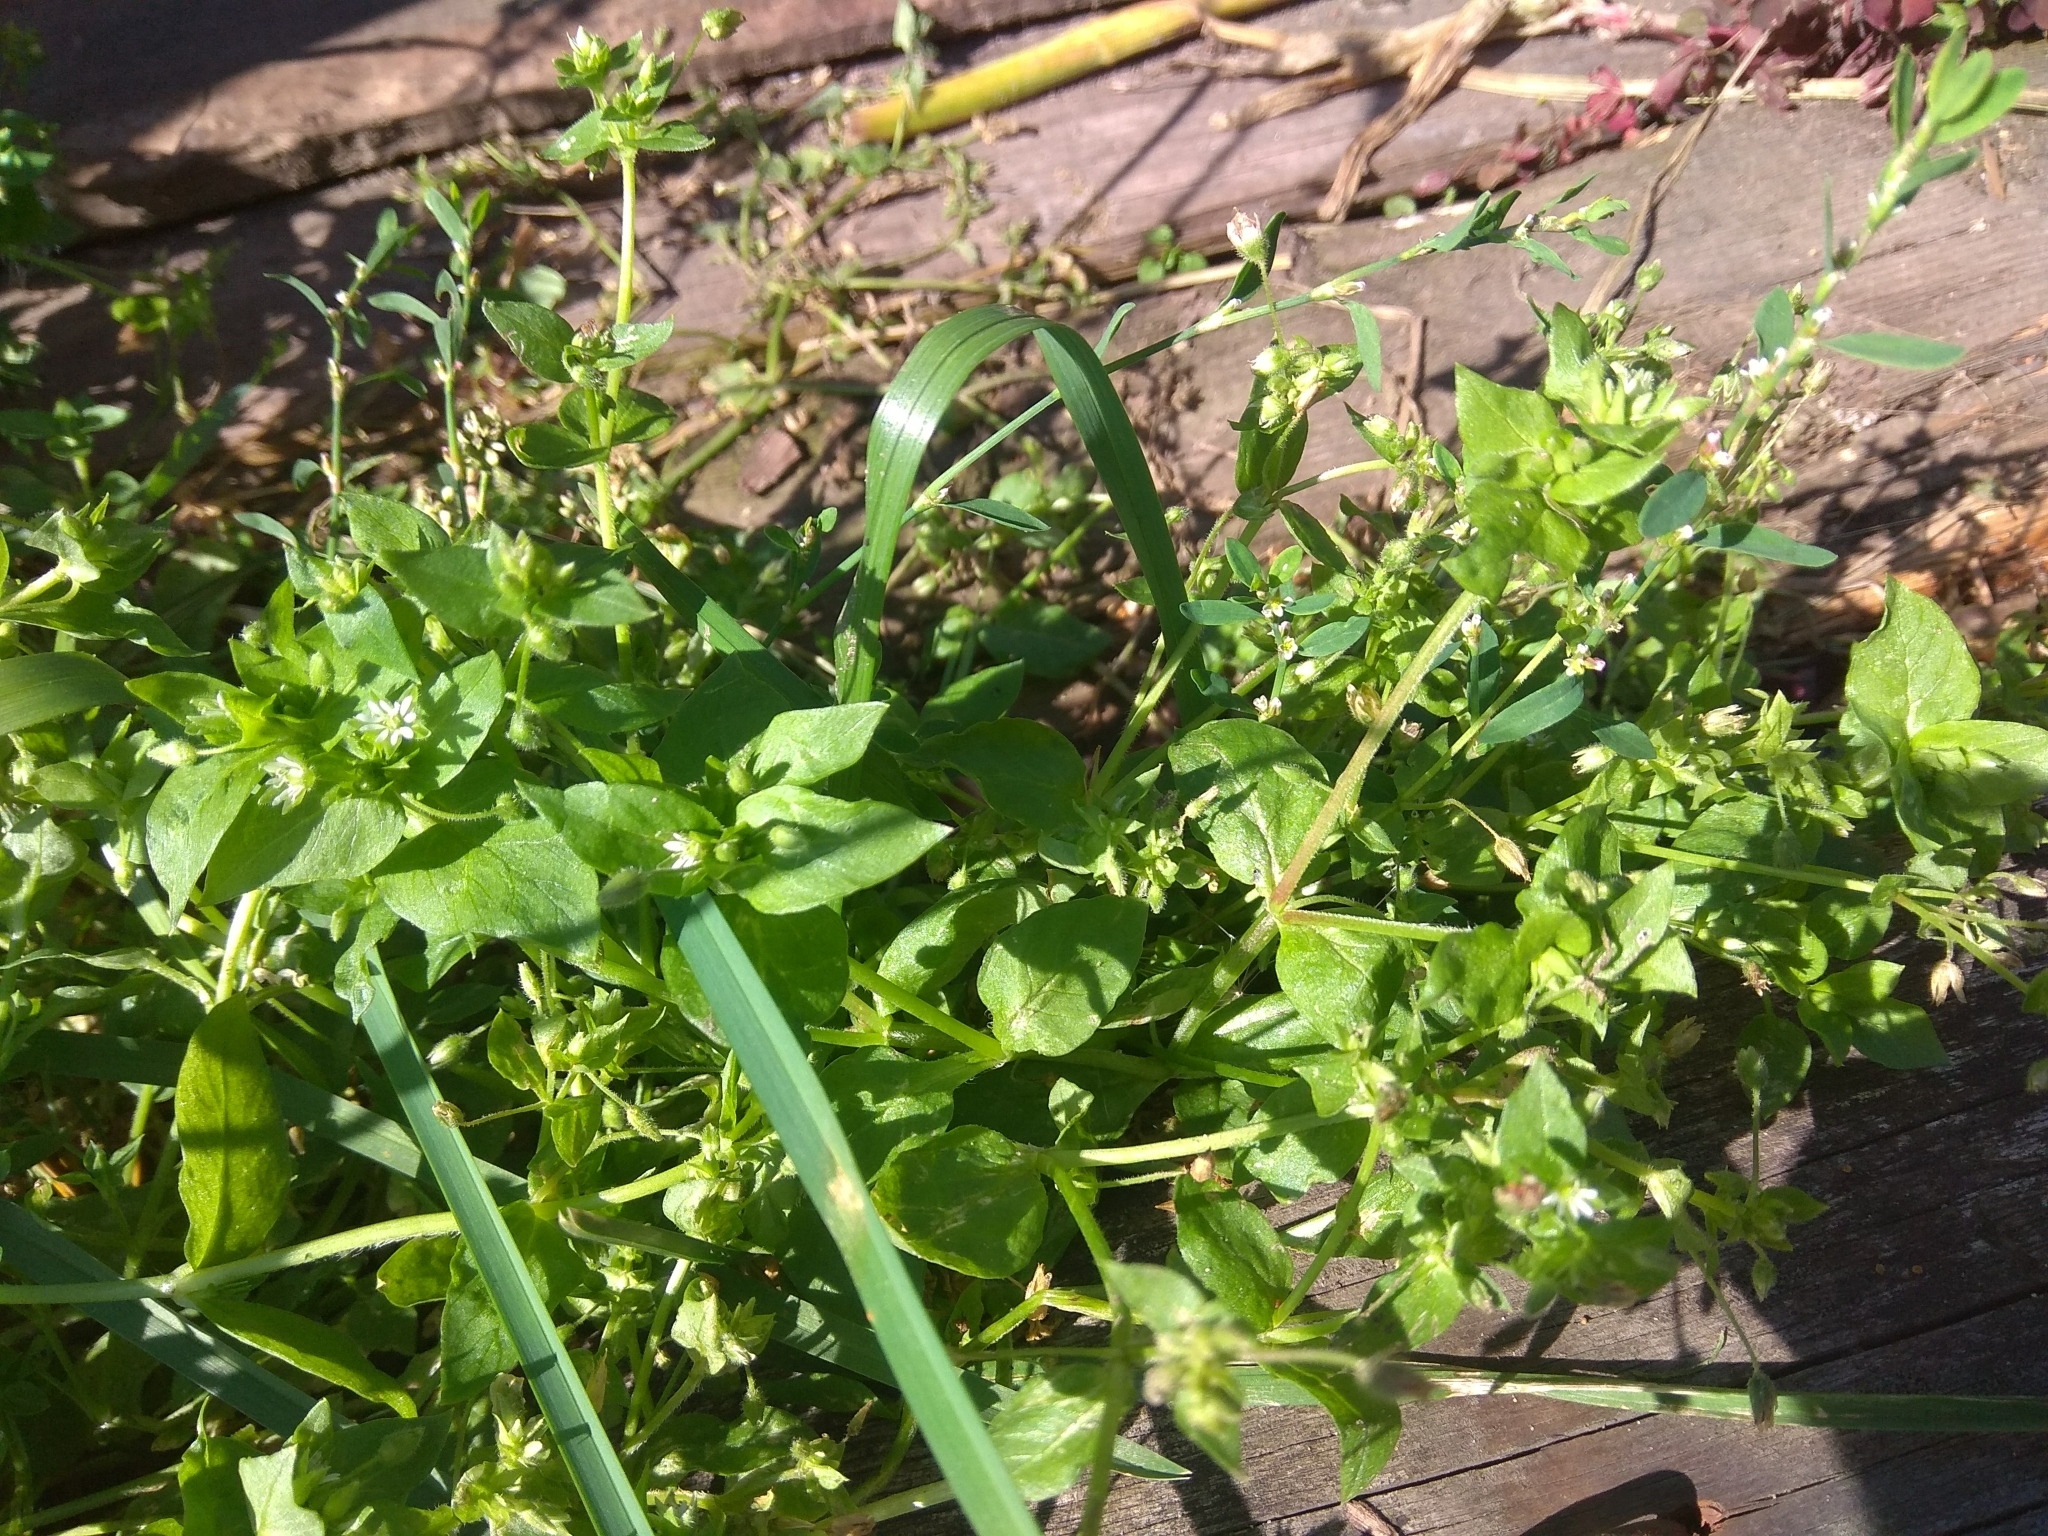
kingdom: Plantae
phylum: Tracheophyta
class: Magnoliopsida
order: Caryophyllales
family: Caryophyllaceae
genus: Stellaria
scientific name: Stellaria media
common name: Common chickweed
